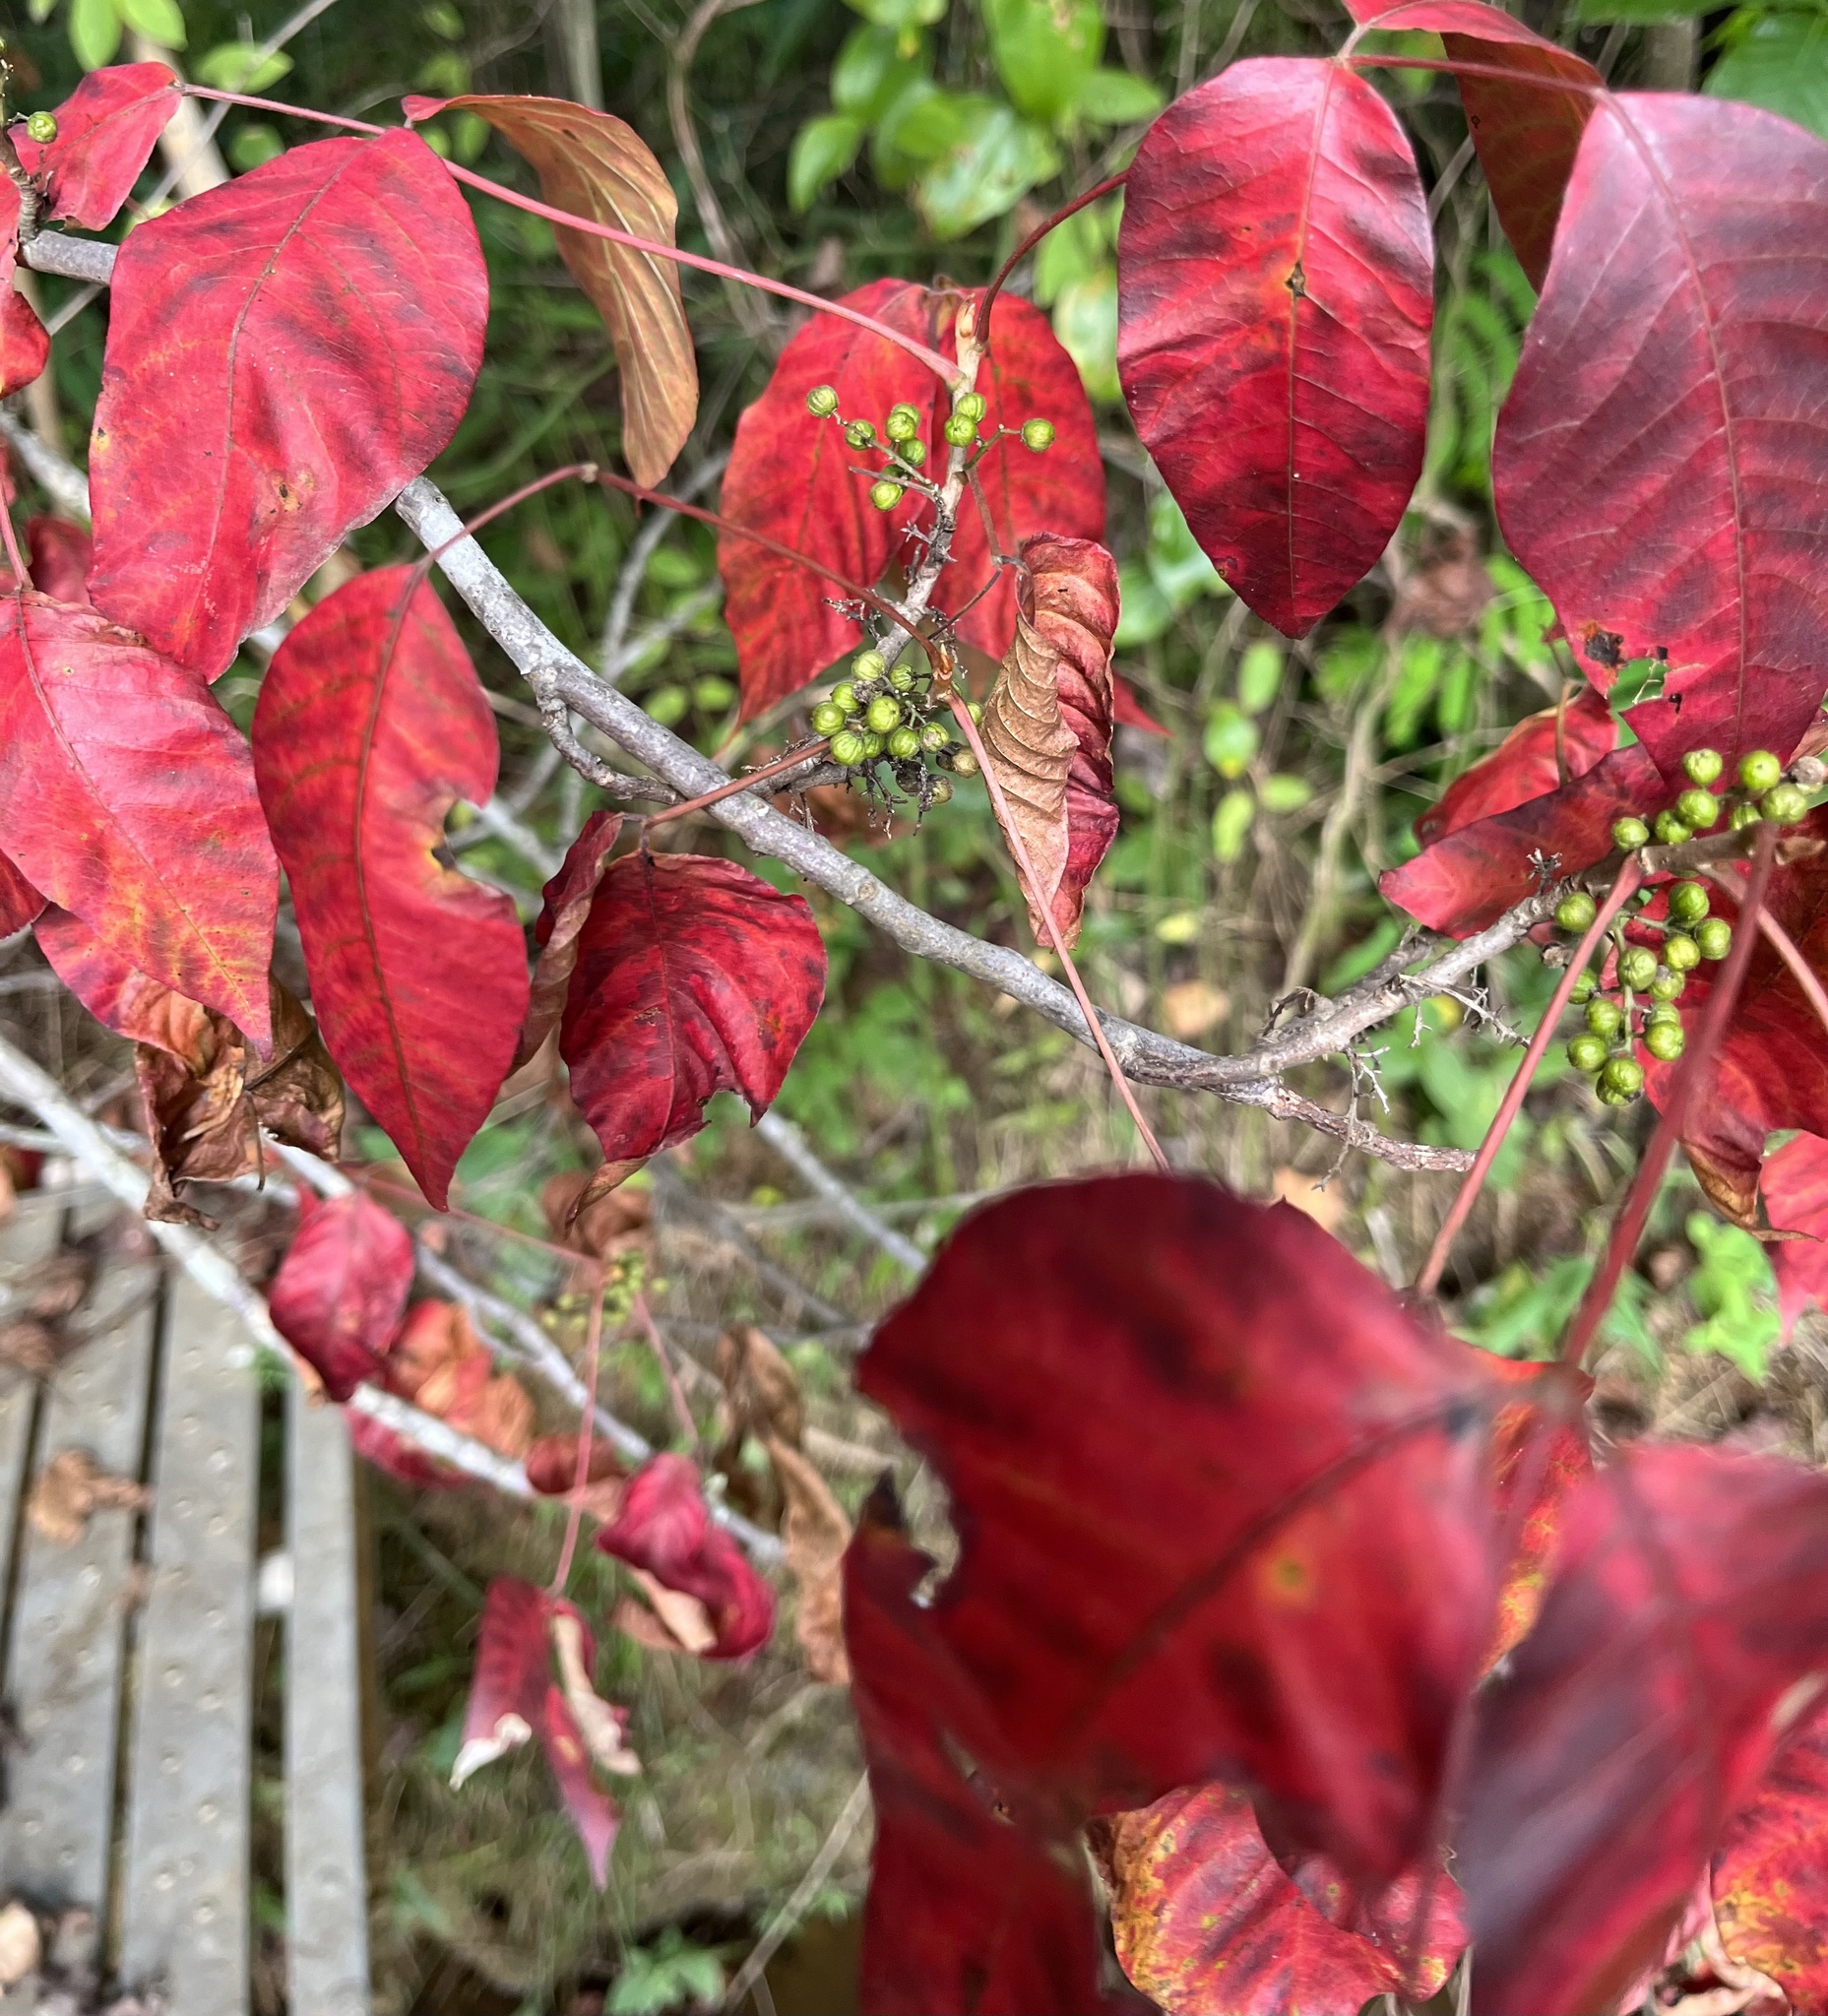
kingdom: Plantae
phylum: Tracheophyta
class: Magnoliopsida
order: Sapindales
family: Anacardiaceae
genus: Toxicodendron
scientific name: Toxicodendron radicans
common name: Poison ivy
